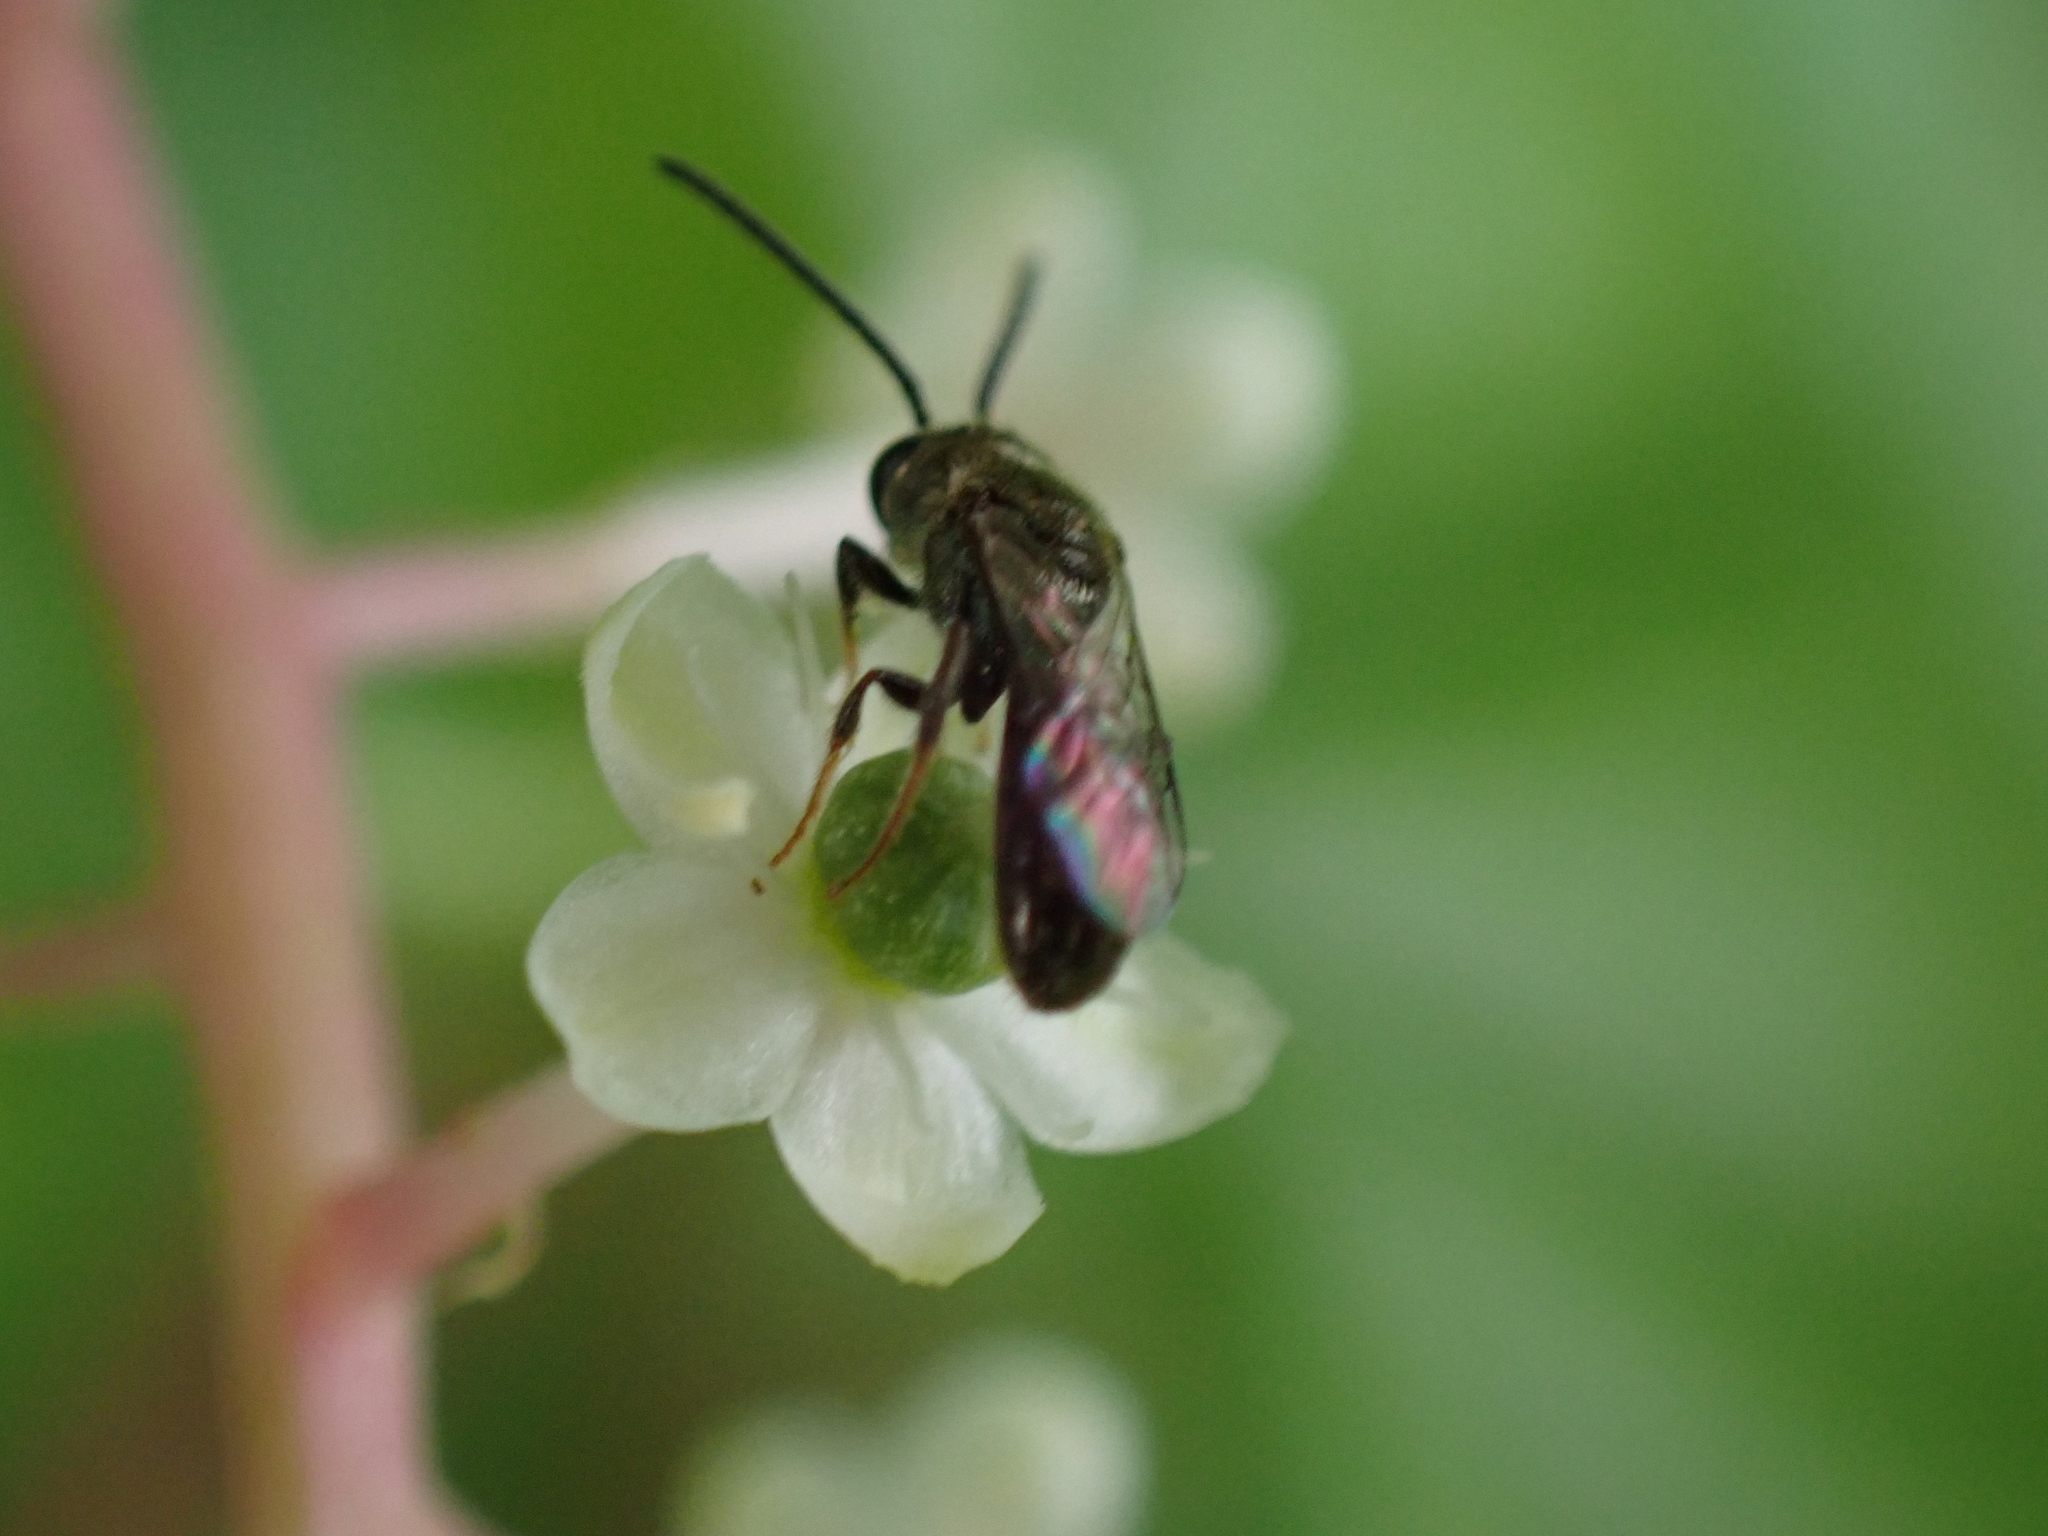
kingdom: Animalia
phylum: Arthropoda
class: Insecta
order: Hymenoptera
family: Halictidae
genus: Dialictus
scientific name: Dialictus
